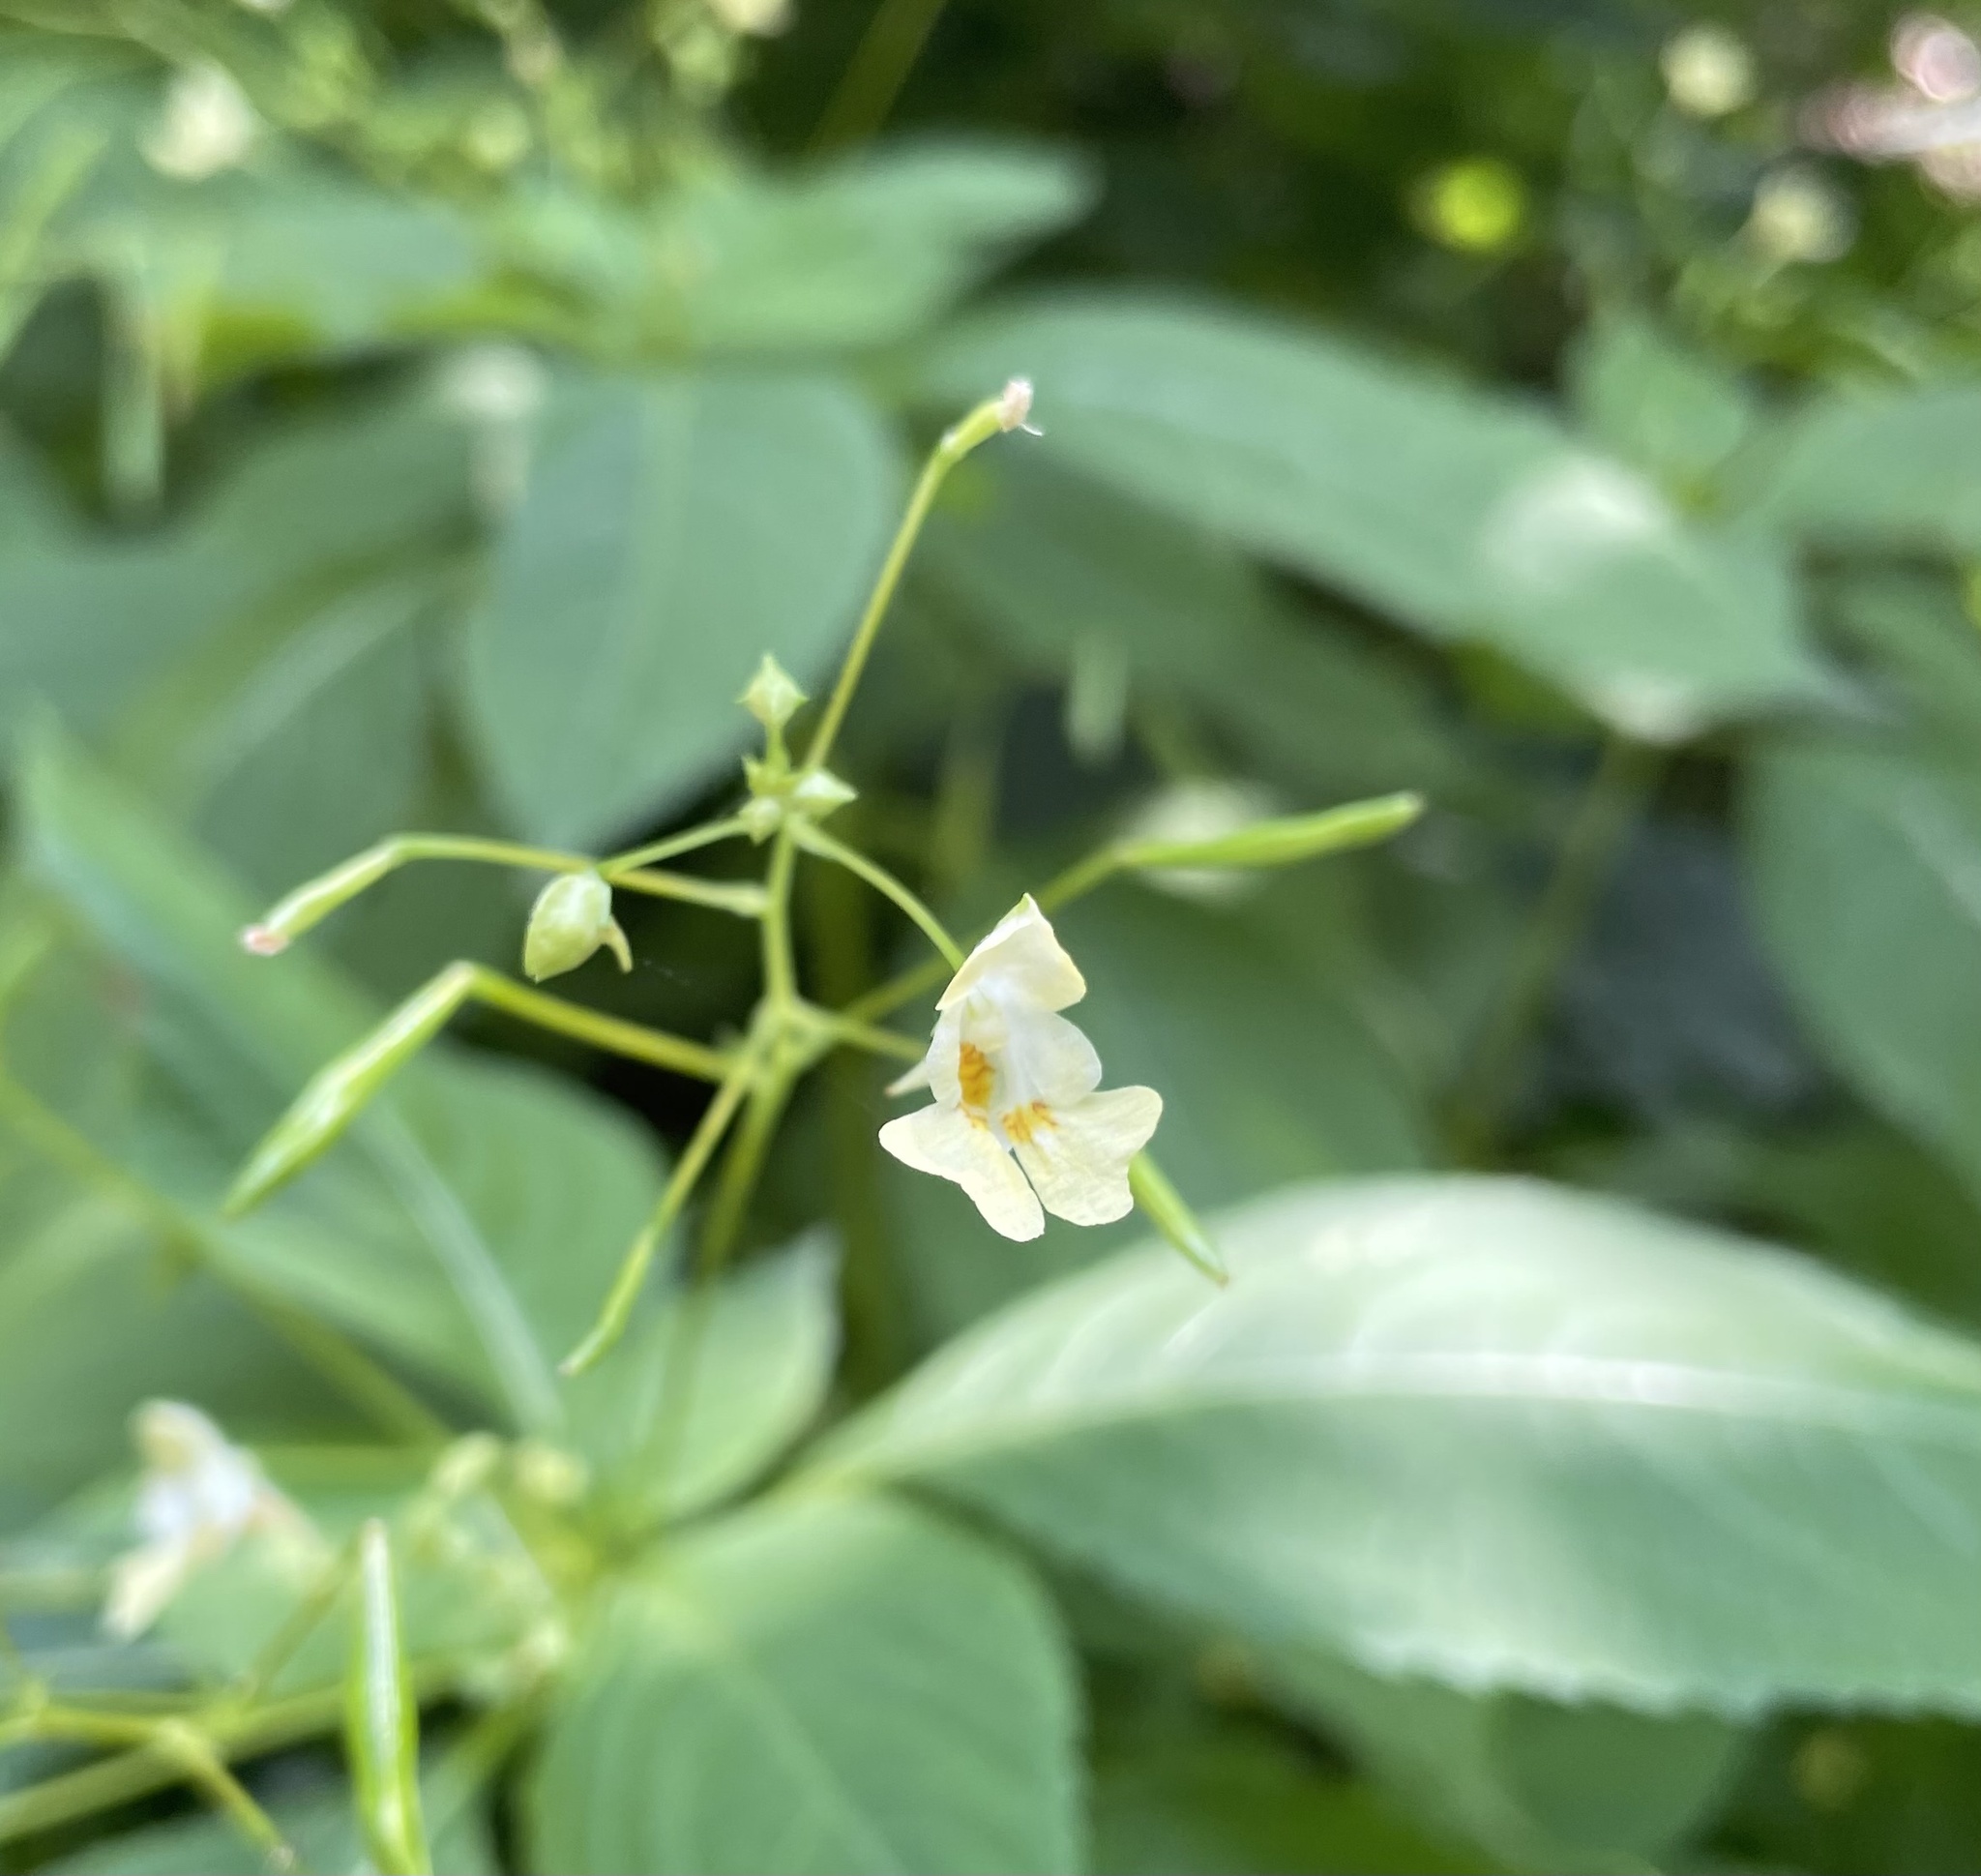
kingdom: Plantae
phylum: Tracheophyta
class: Magnoliopsida
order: Ericales
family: Balsaminaceae
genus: Impatiens
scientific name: Impatiens parviflora
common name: Small balsam
